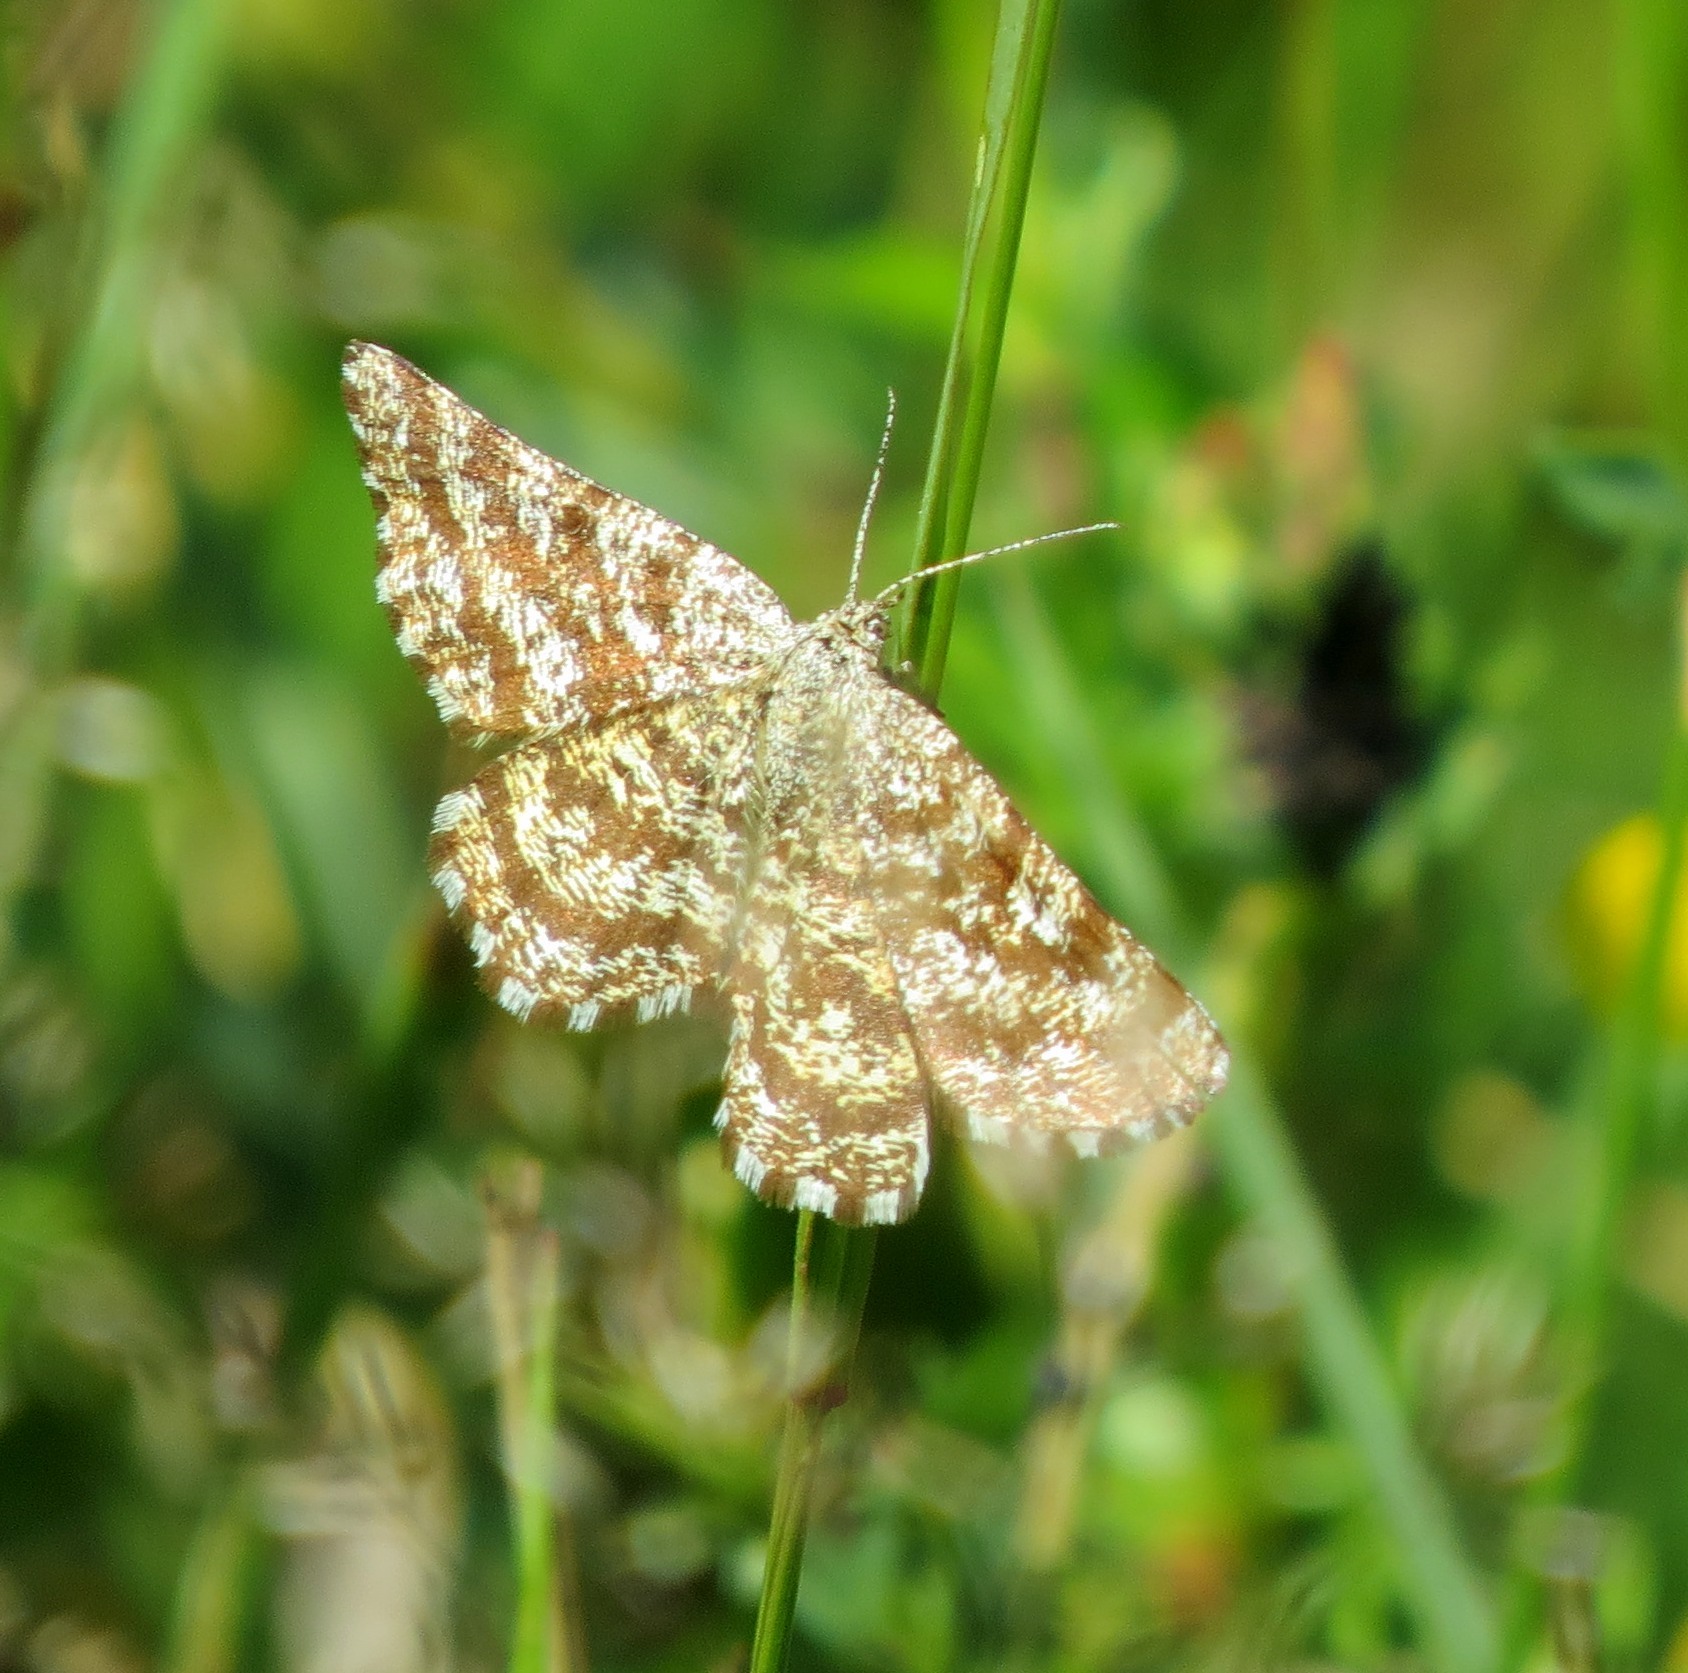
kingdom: Animalia
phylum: Arthropoda
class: Insecta
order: Lepidoptera
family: Geometridae
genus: Ematurga
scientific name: Ematurga atomaria
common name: Common heath
